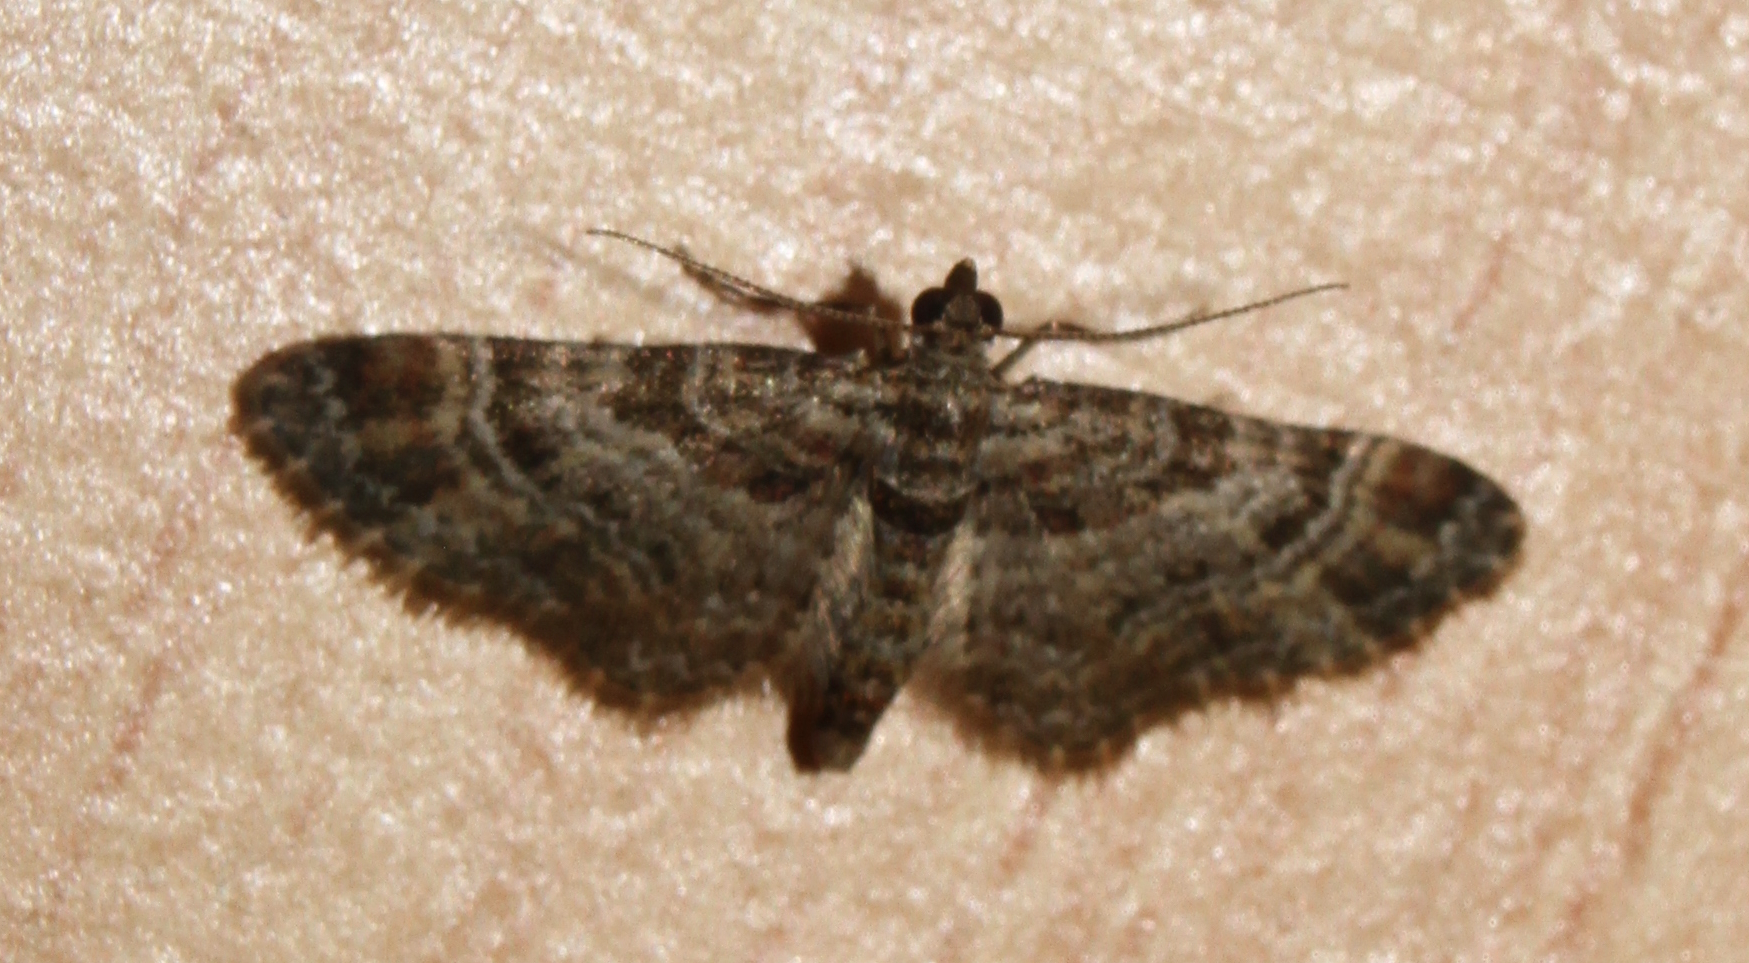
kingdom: Animalia
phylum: Arthropoda
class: Insecta
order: Lepidoptera
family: Geometridae
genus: Gymnoscelis
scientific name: Gymnoscelis rufifasciata
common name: Double-striped pug
